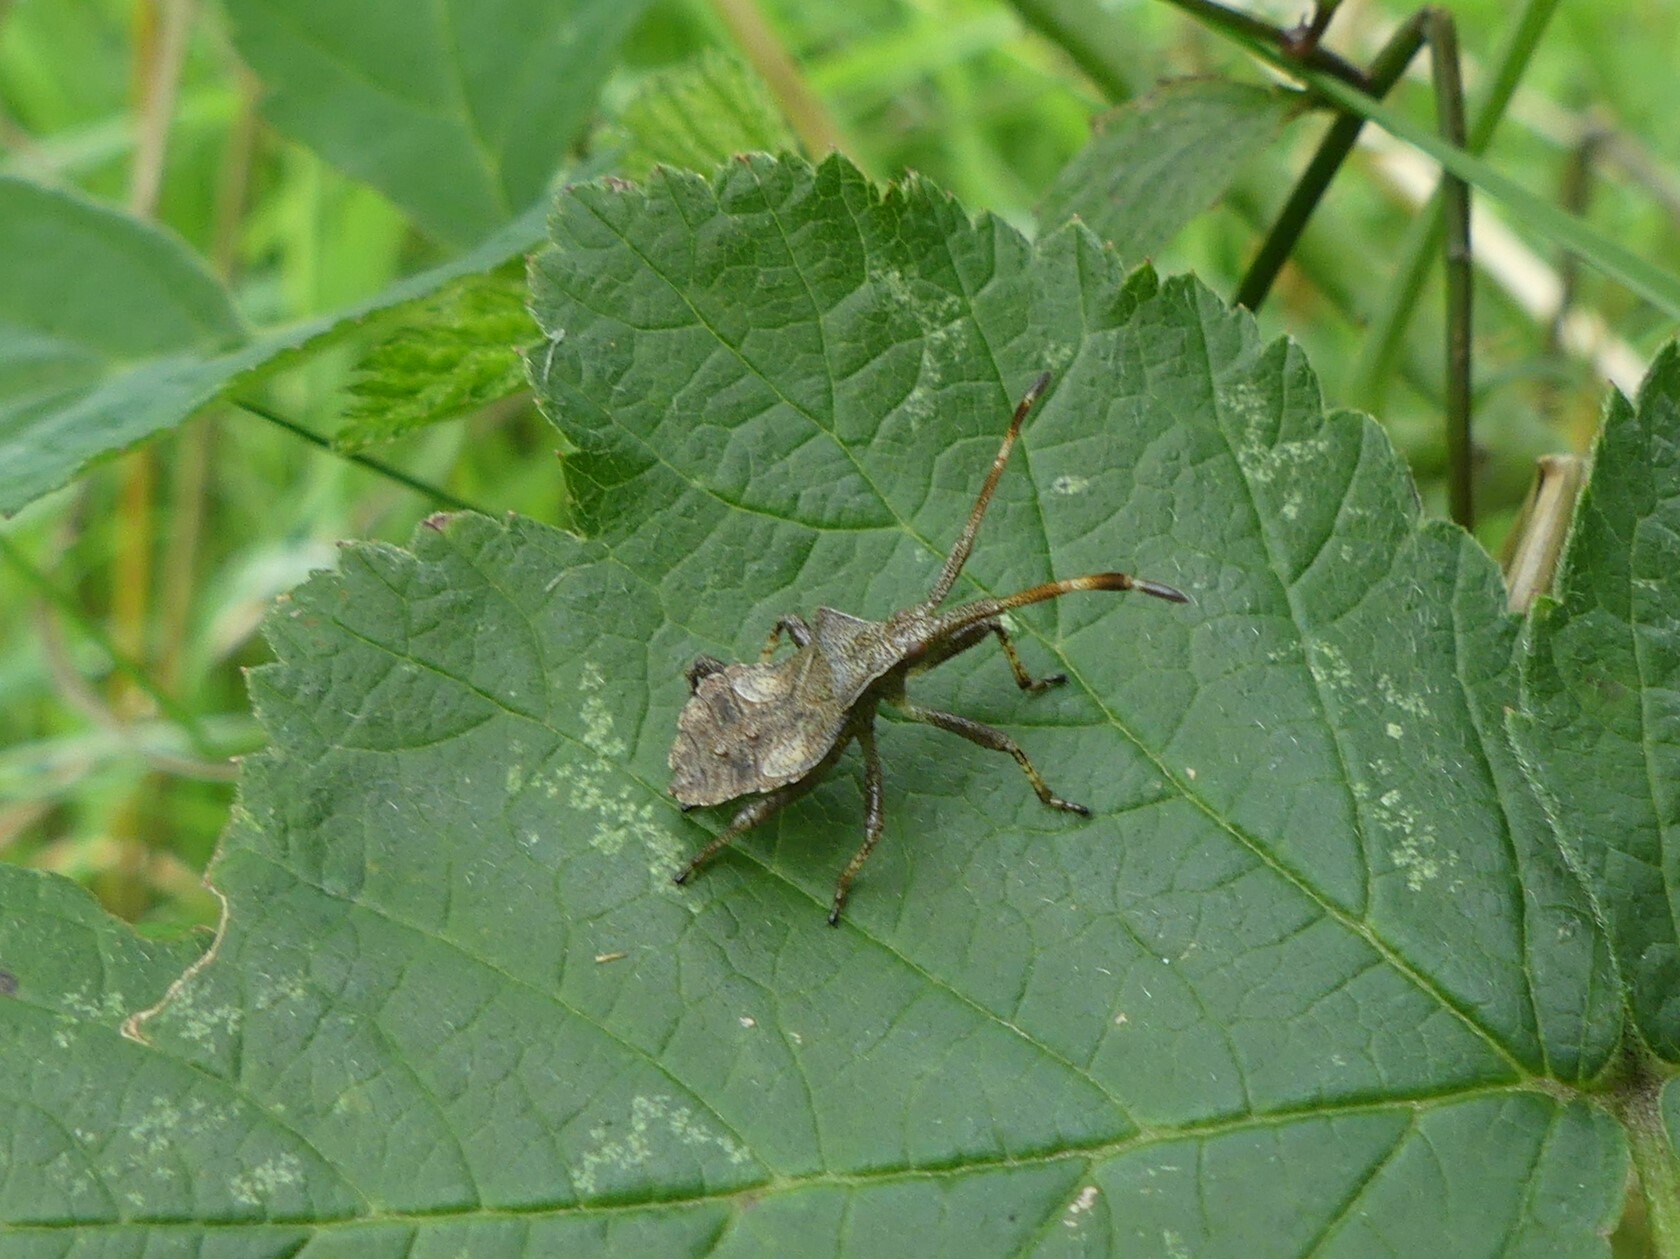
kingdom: Animalia
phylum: Arthropoda
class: Insecta
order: Hemiptera
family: Coreidae
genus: Coreus
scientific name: Coreus marginatus
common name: Dock bug
